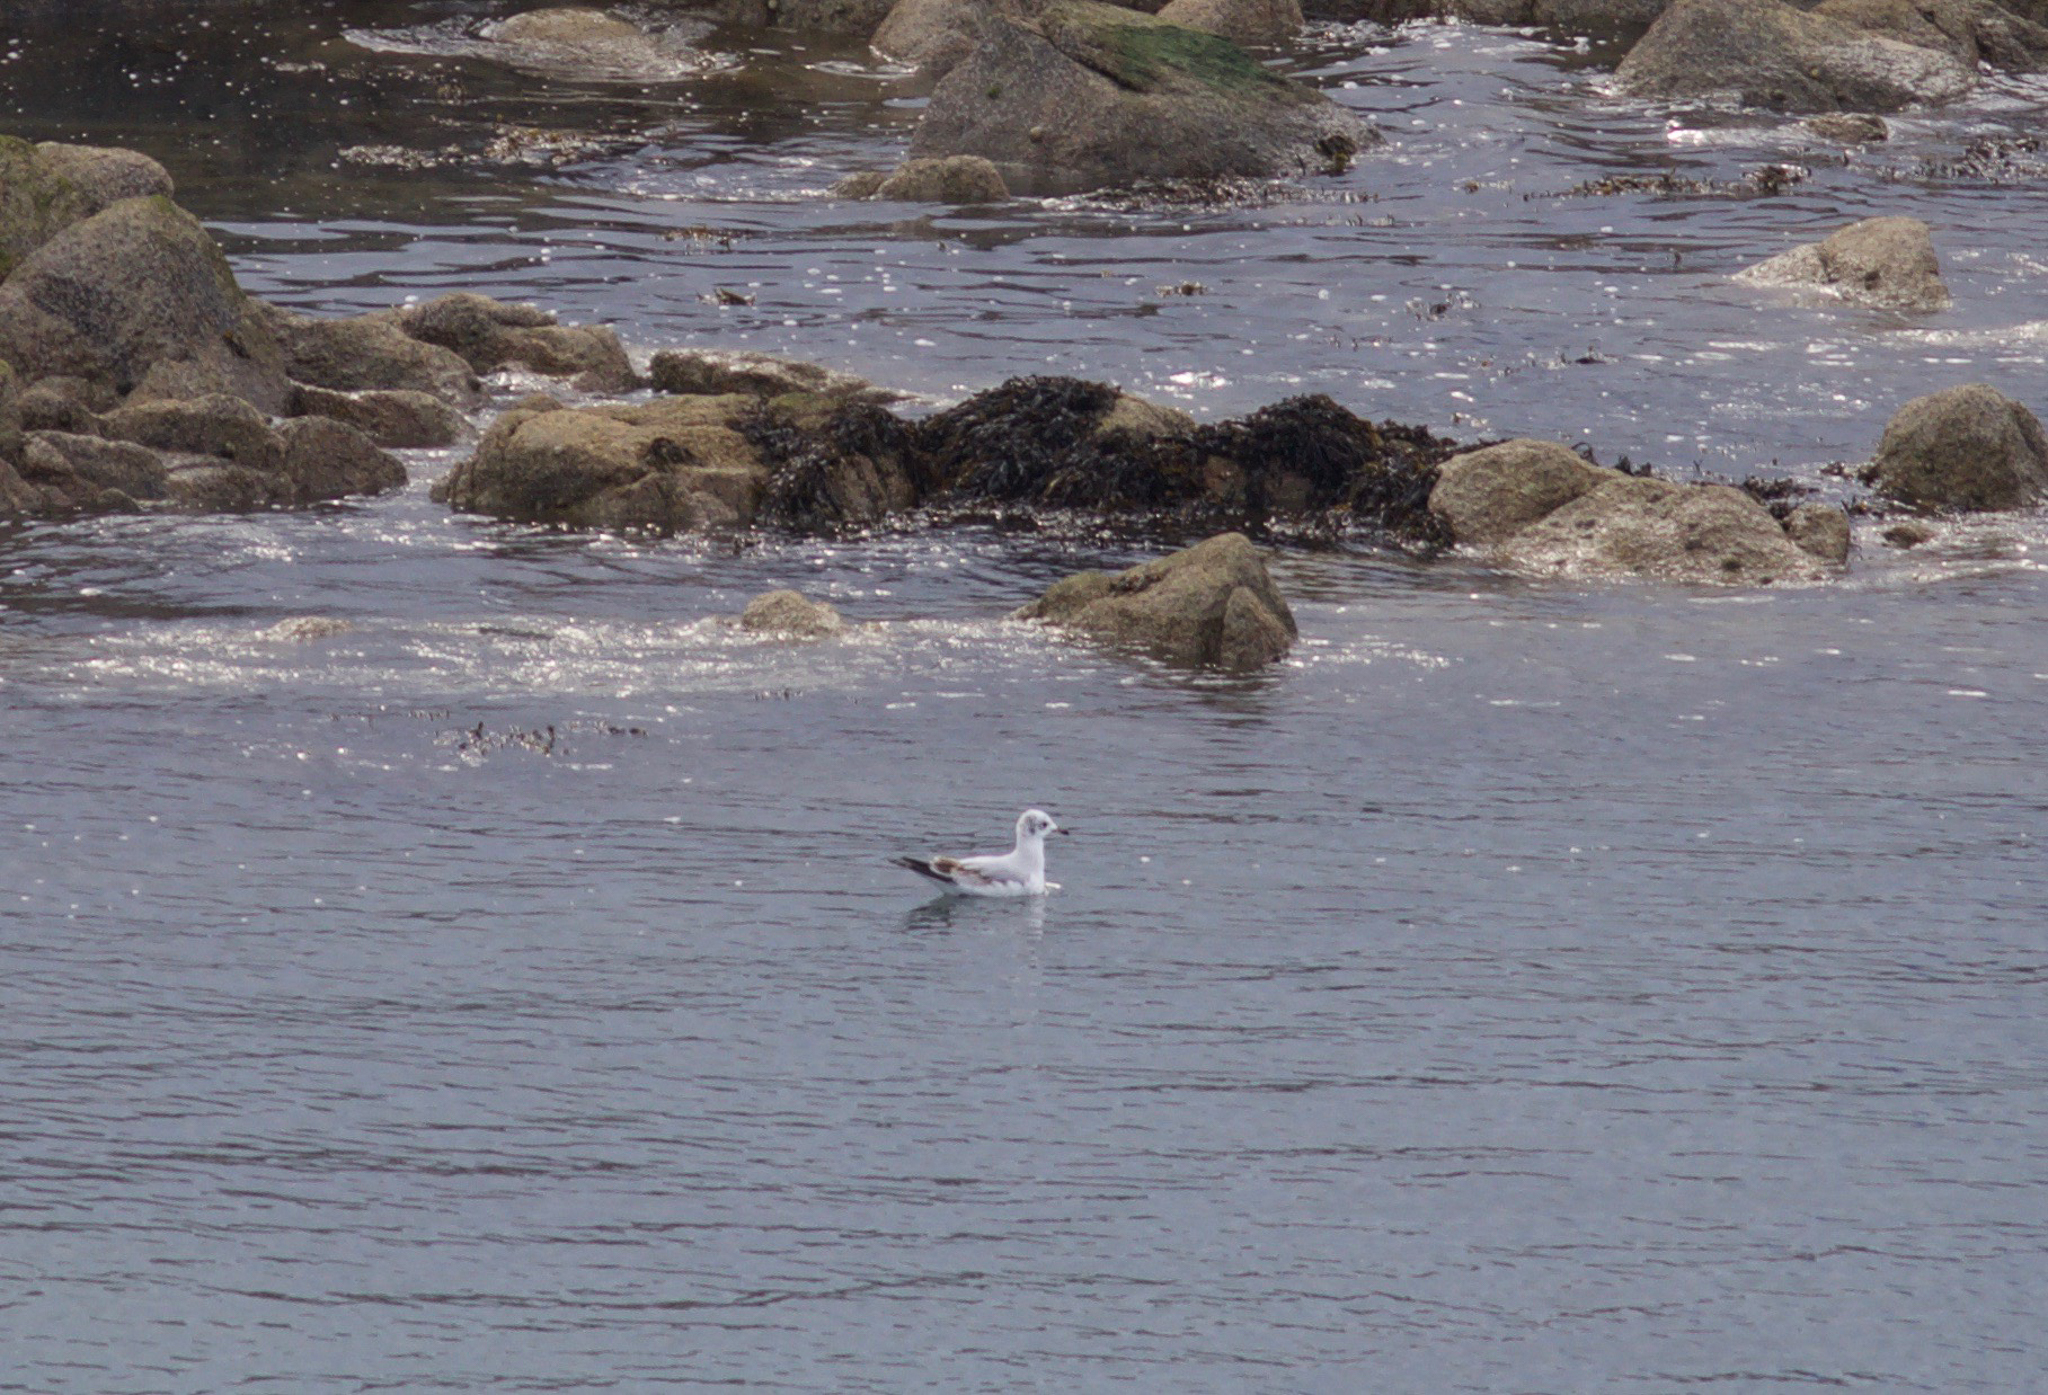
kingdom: Animalia
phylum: Chordata
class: Aves
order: Charadriiformes
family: Laridae
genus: Chroicocephalus
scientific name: Chroicocephalus ridibundus
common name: Black-headed gull
